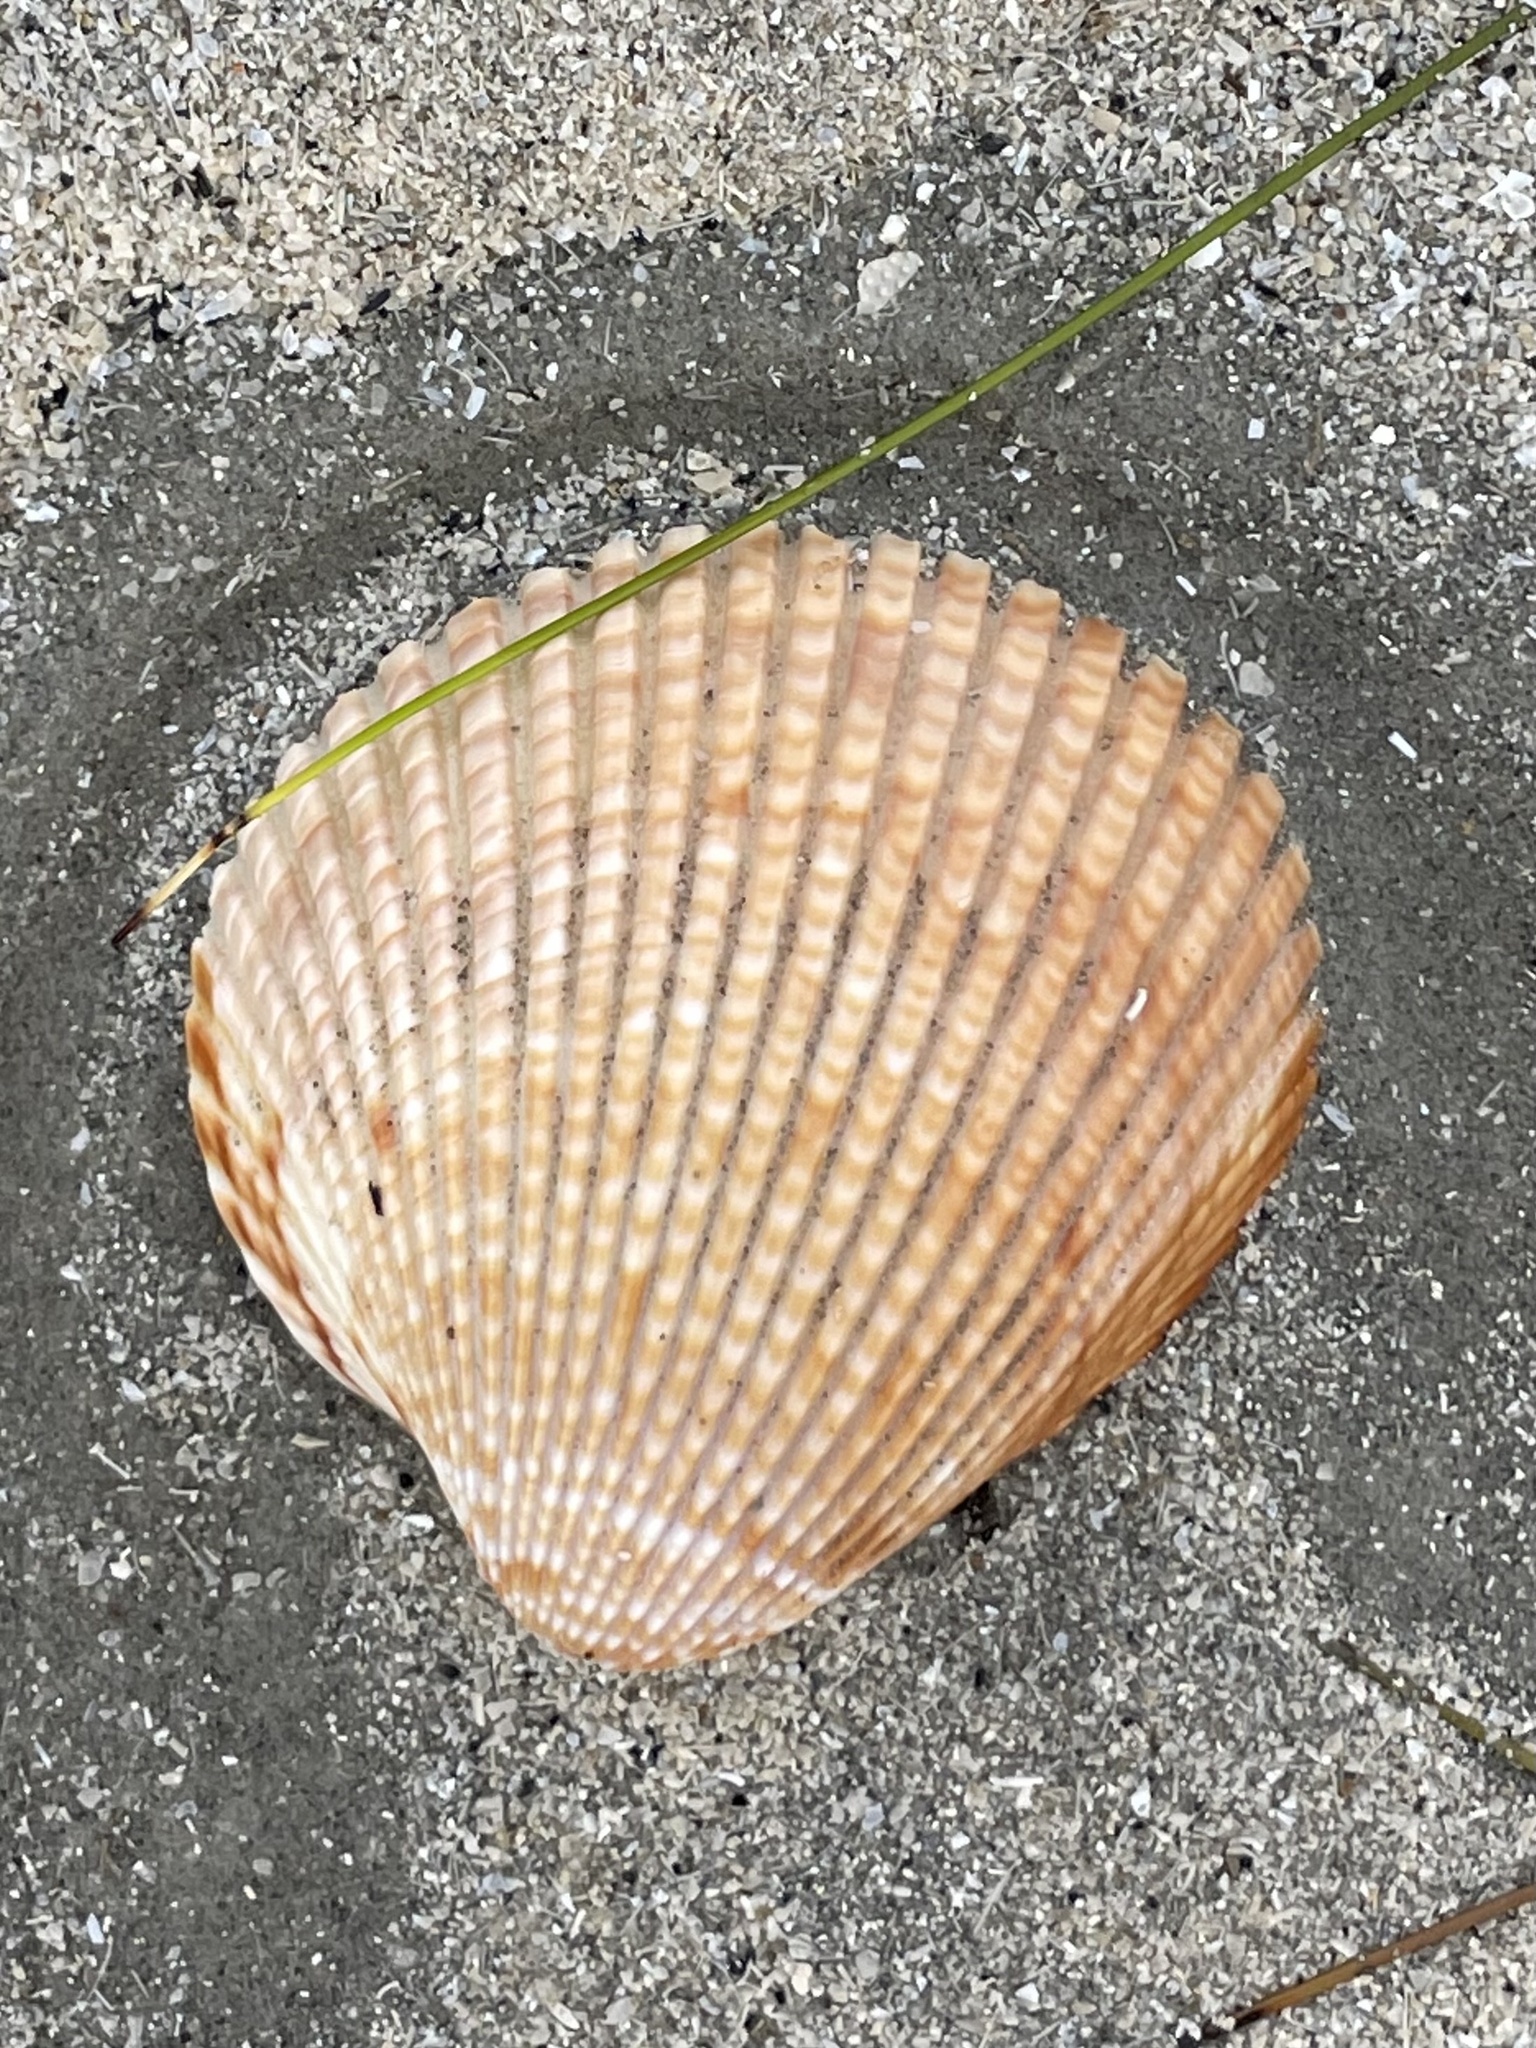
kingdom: Animalia
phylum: Mollusca
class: Bivalvia
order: Cardiida
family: Cardiidae
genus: Dinocardium
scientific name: Dinocardium robustum
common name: Atlantic giant cockle
